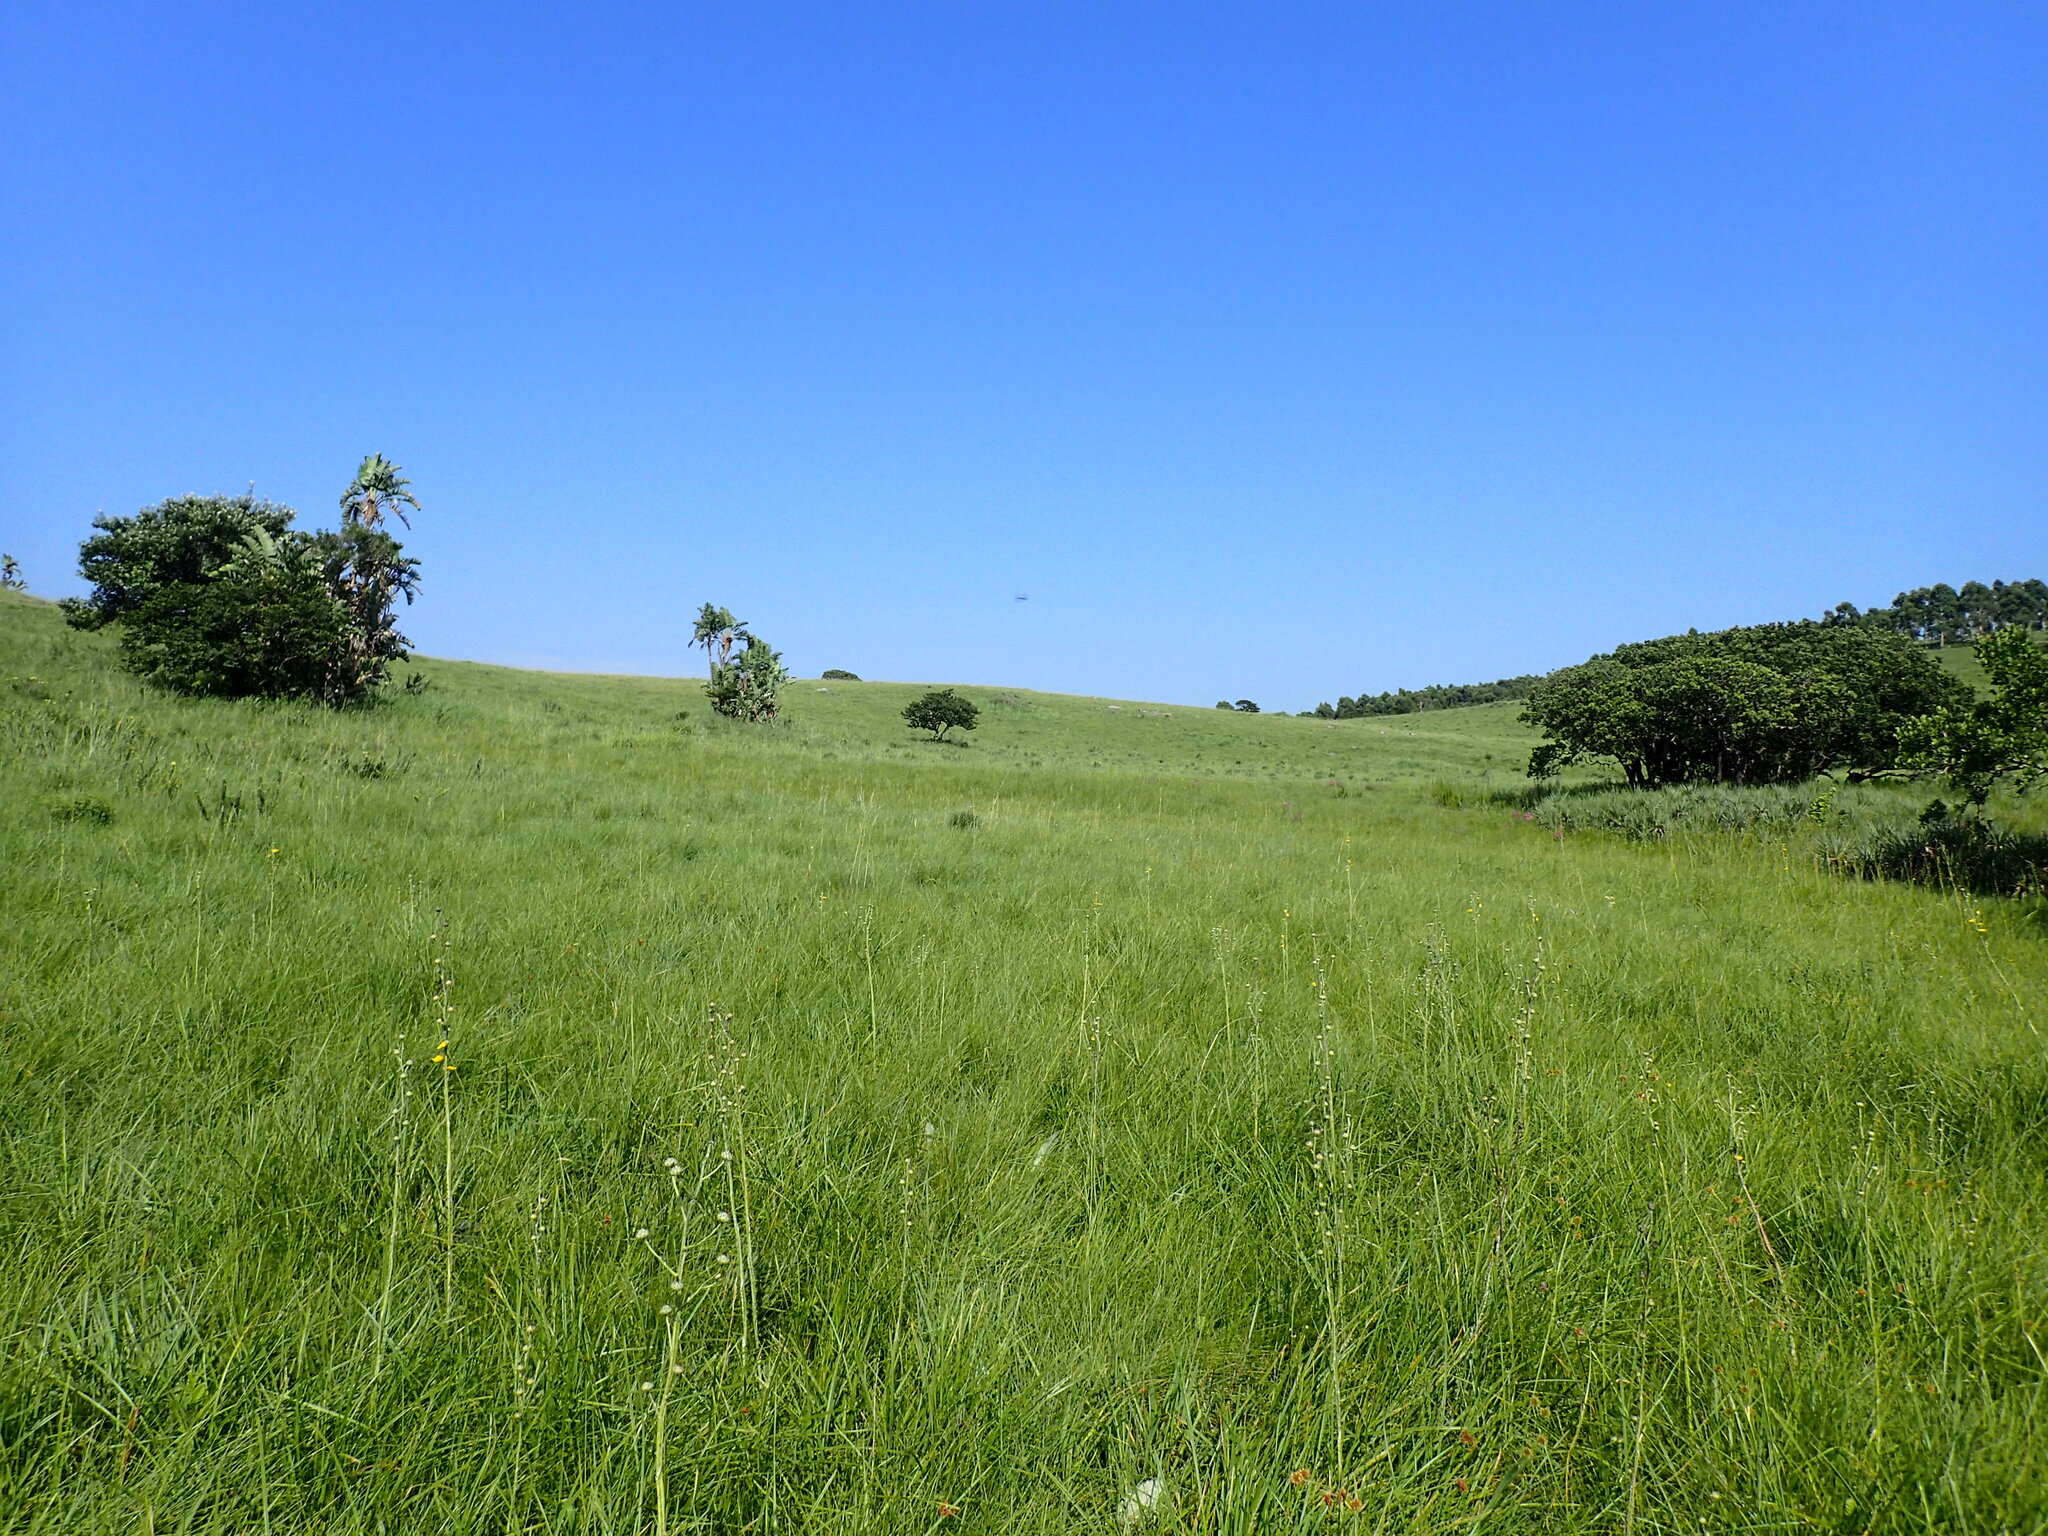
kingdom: Plantae
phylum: Tracheophyta
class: Magnoliopsida
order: Caryophyllales
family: Aizoaceae
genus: Delosperma
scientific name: Delosperma subpetiolatum
